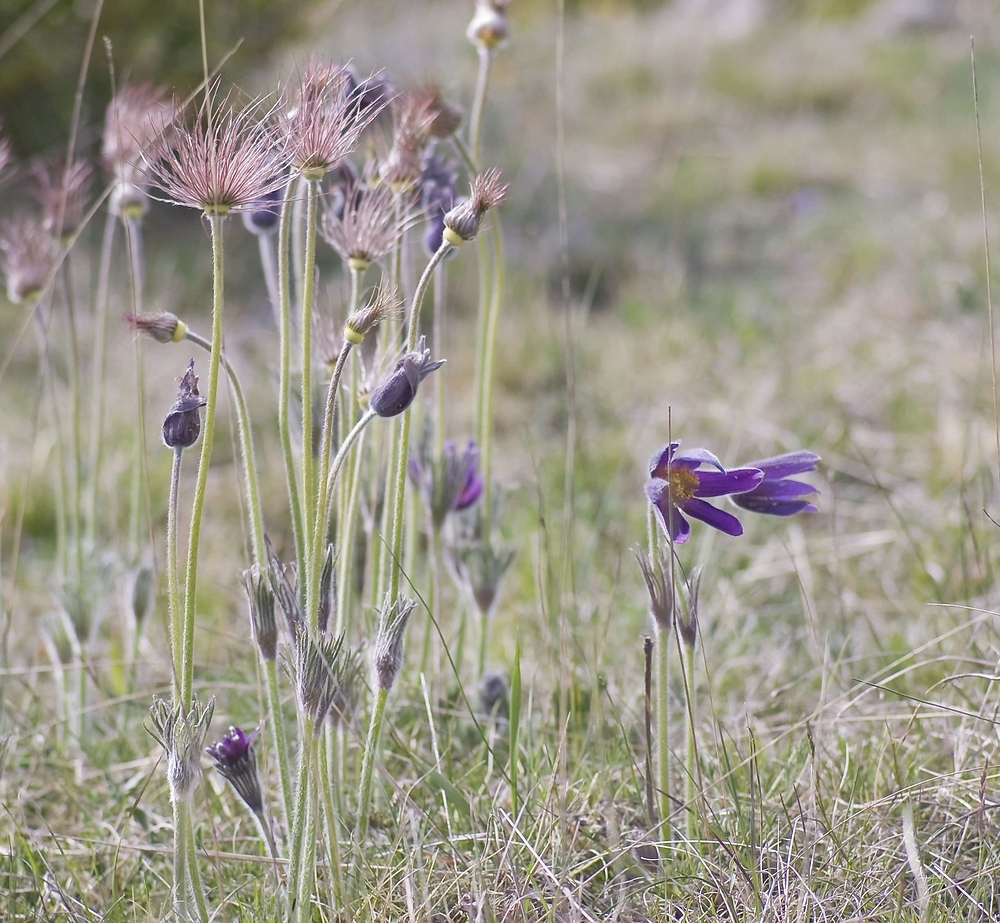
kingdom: Plantae
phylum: Tracheophyta
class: Magnoliopsida
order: Ranunculales
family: Ranunculaceae
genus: Pulsatilla
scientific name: Pulsatilla vulgaris
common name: Pasqueflower
